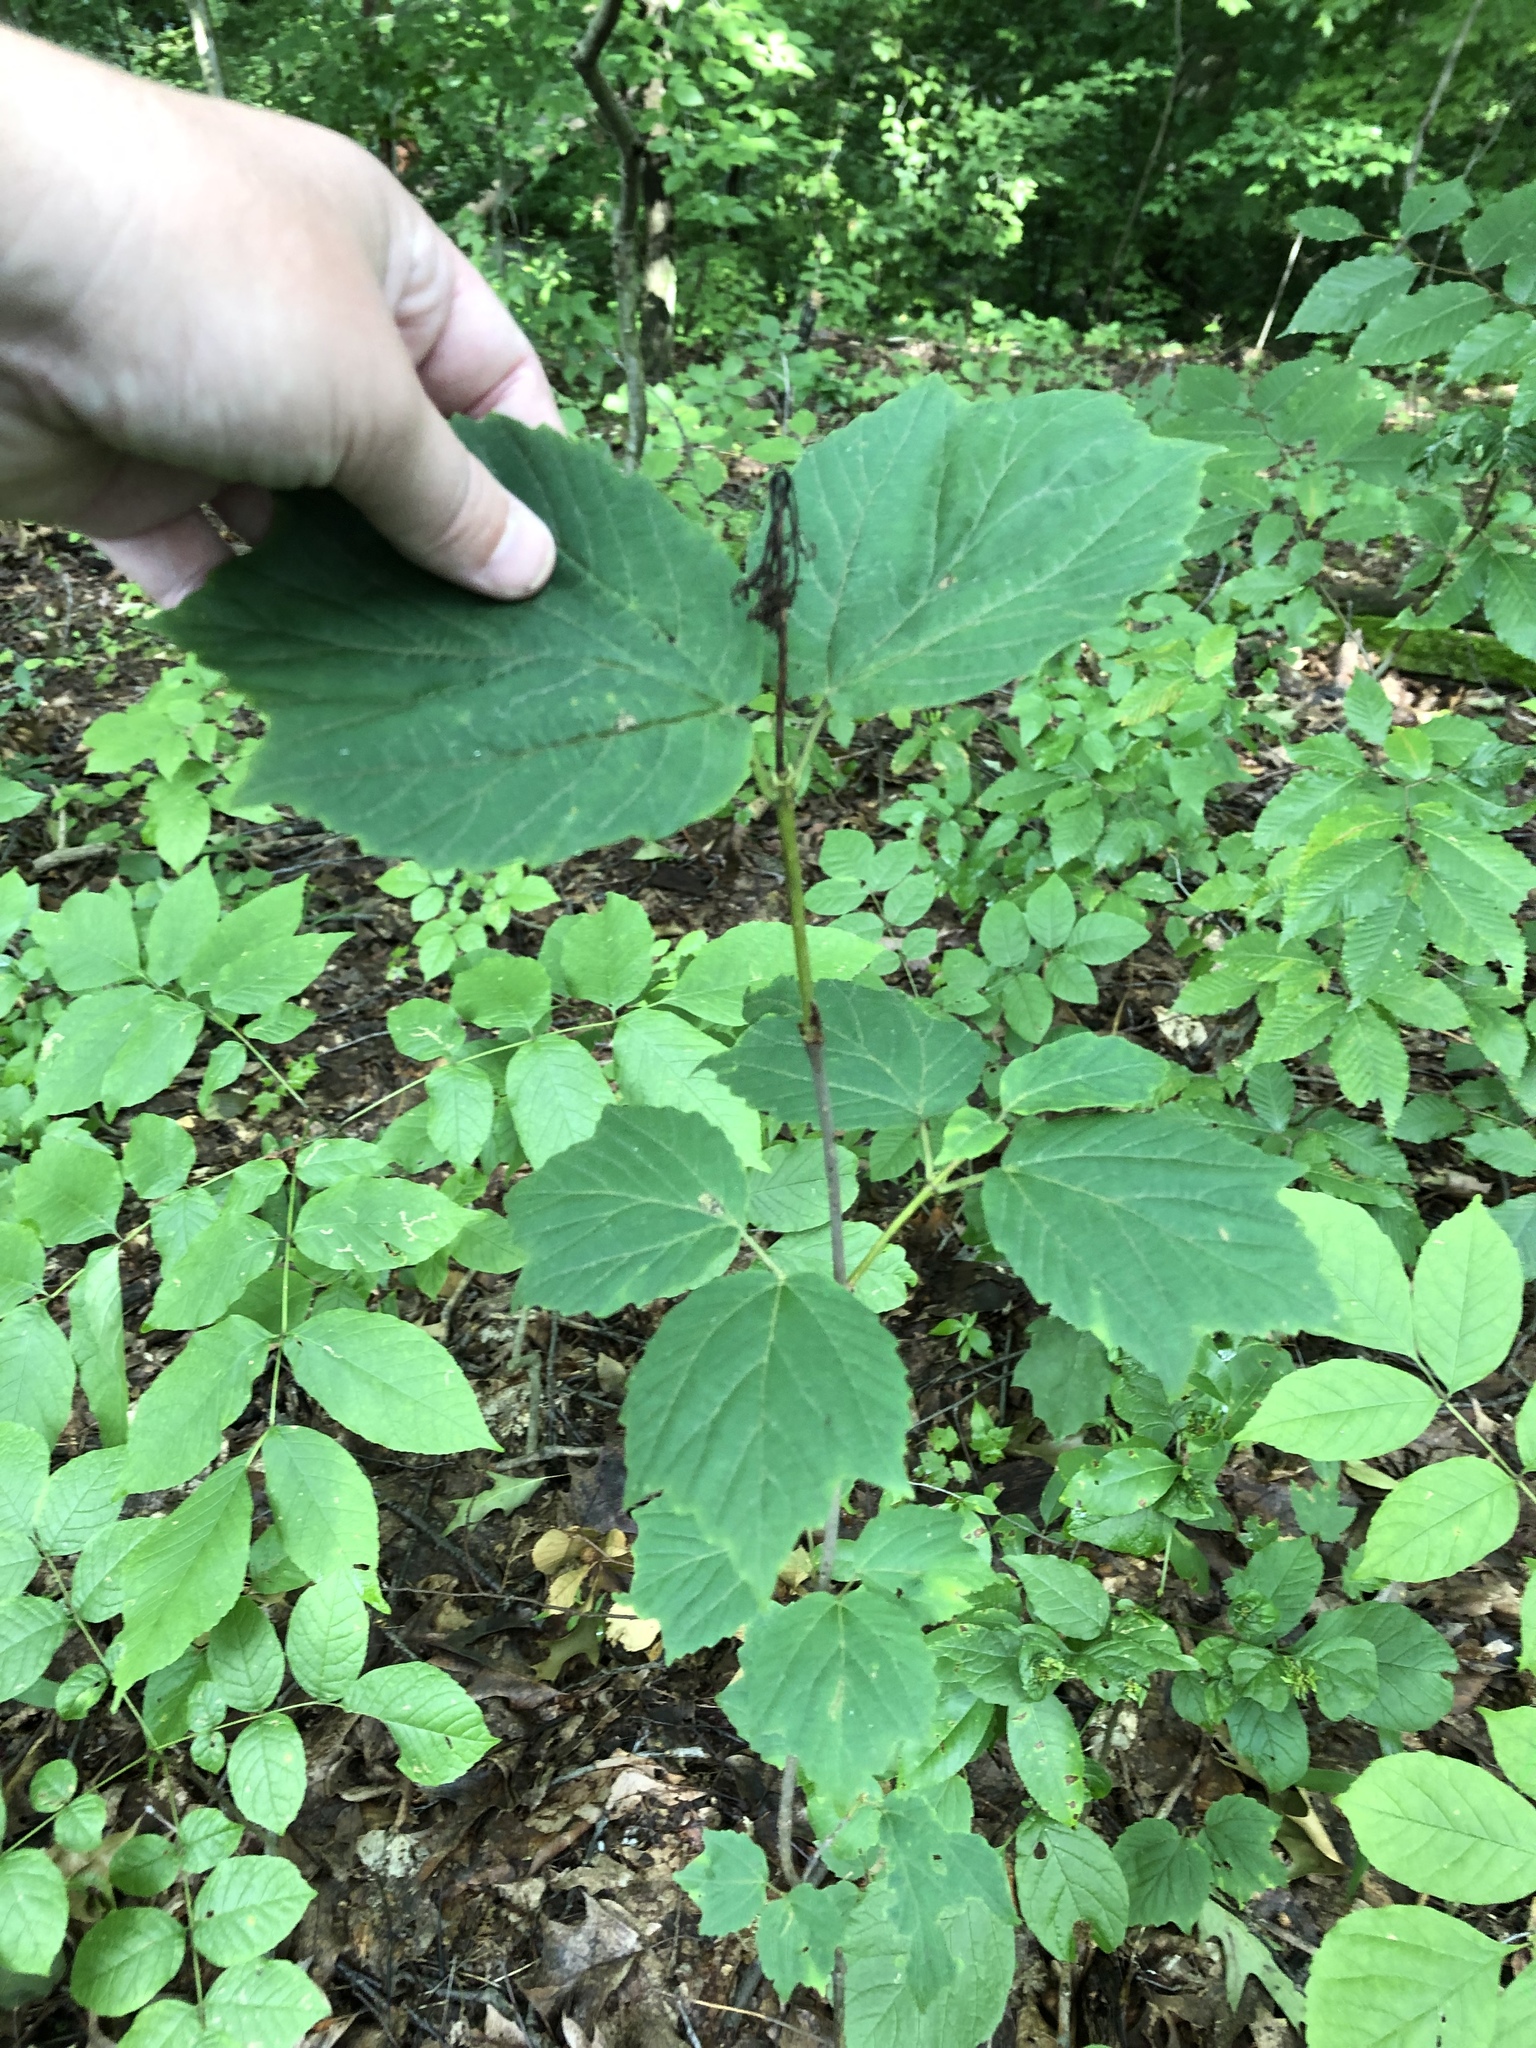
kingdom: Plantae
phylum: Tracheophyta
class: Magnoliopsida
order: Dipsacales
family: Viburnaceae
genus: Viburnum
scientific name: Viburnum acerifolium
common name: Dockmackie
